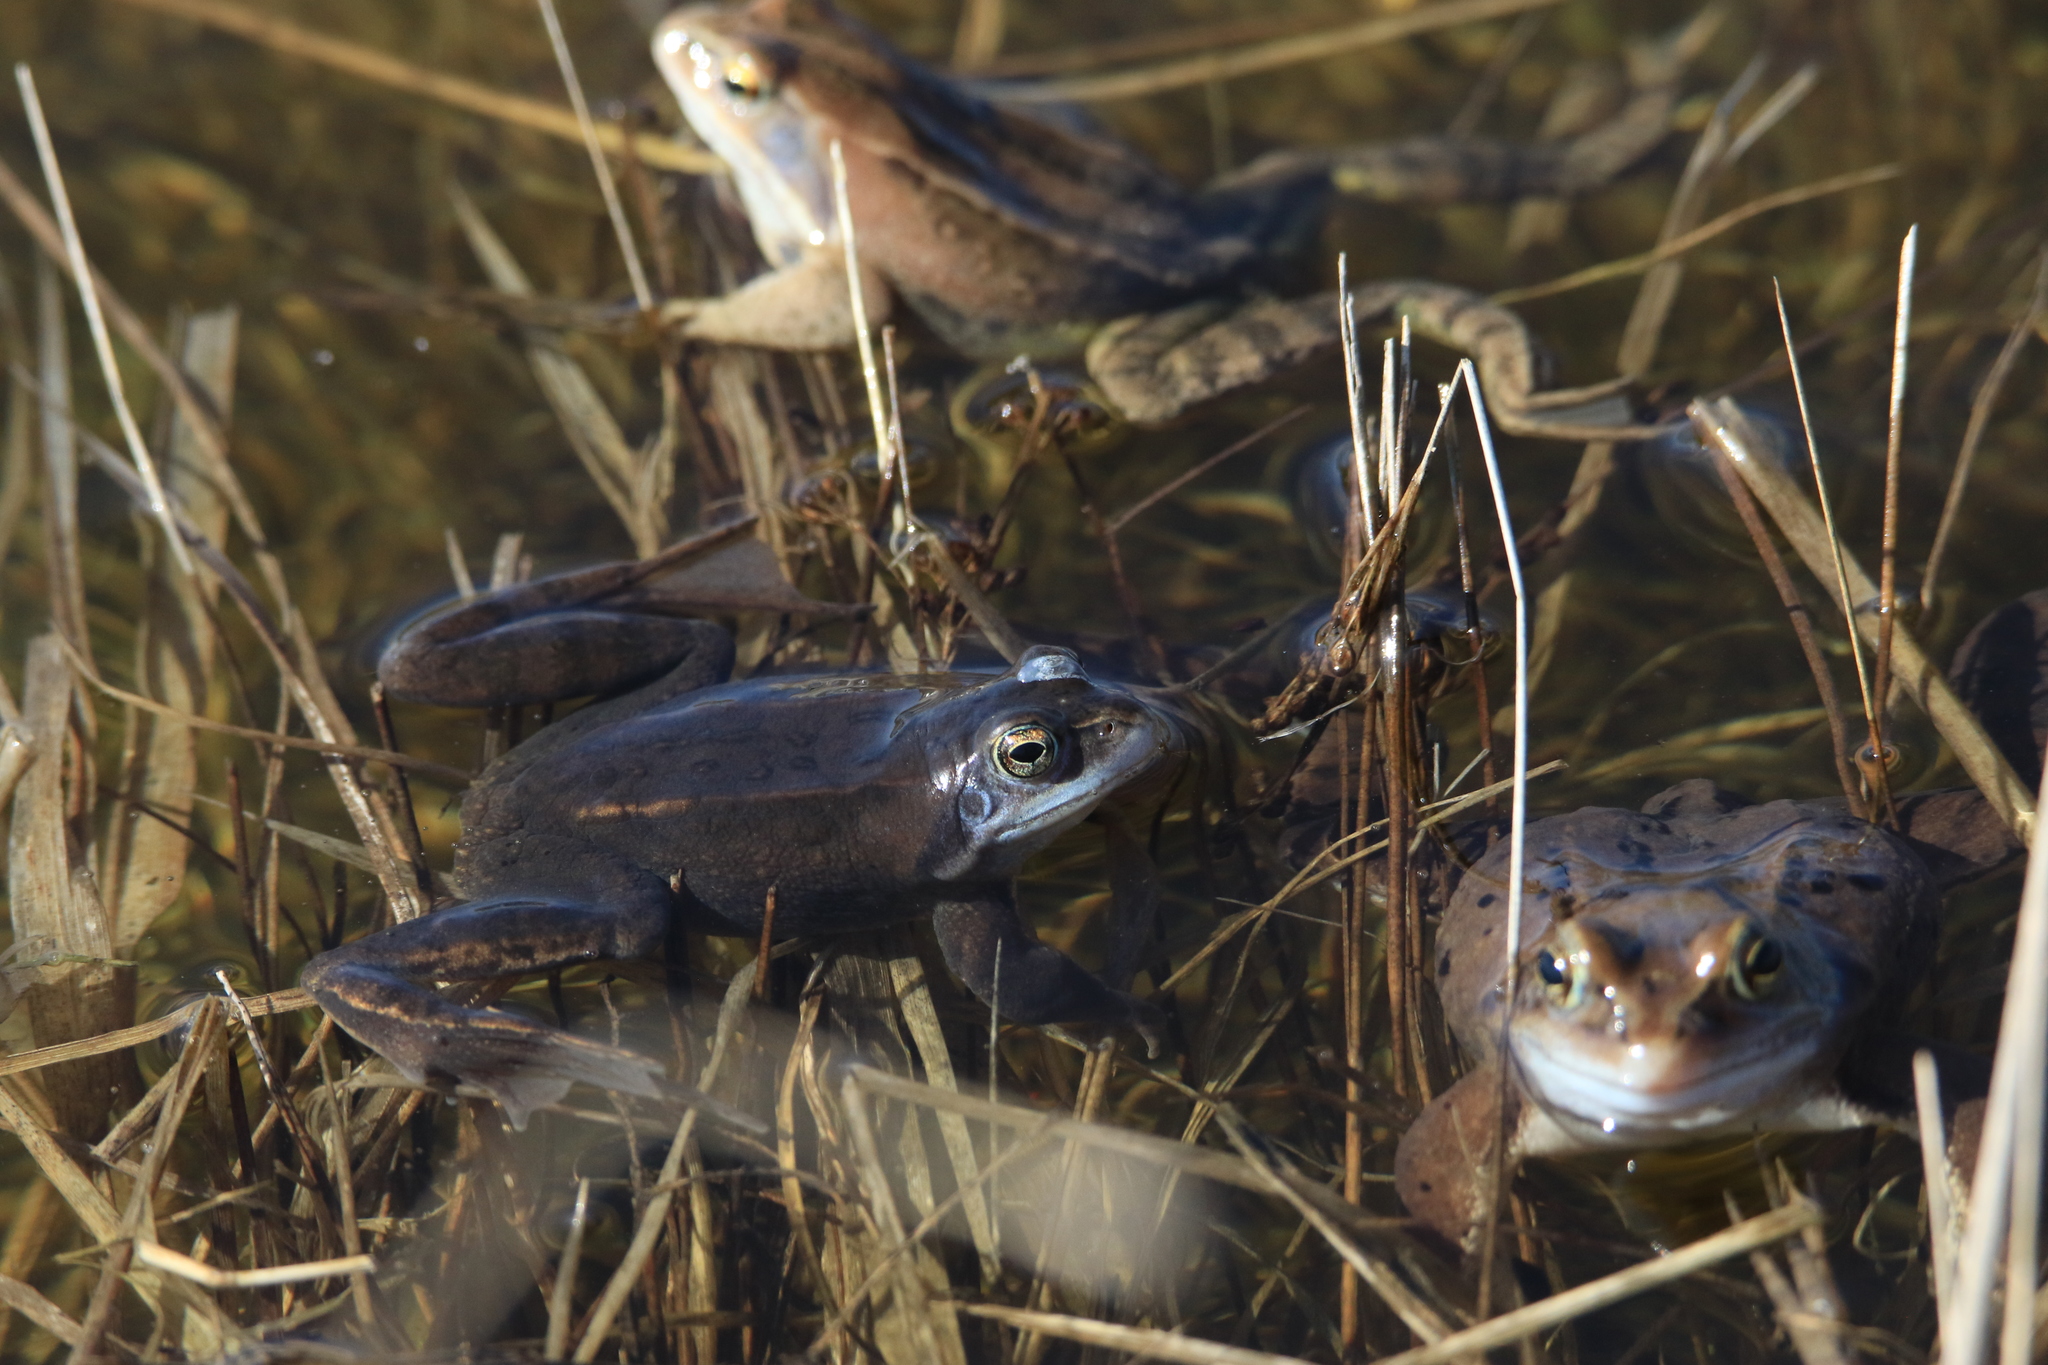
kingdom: Animalia
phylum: Chordata
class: Amphibia
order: Anura
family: Ranidae
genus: Rana
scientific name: Rana arvalis
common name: Moor frog
